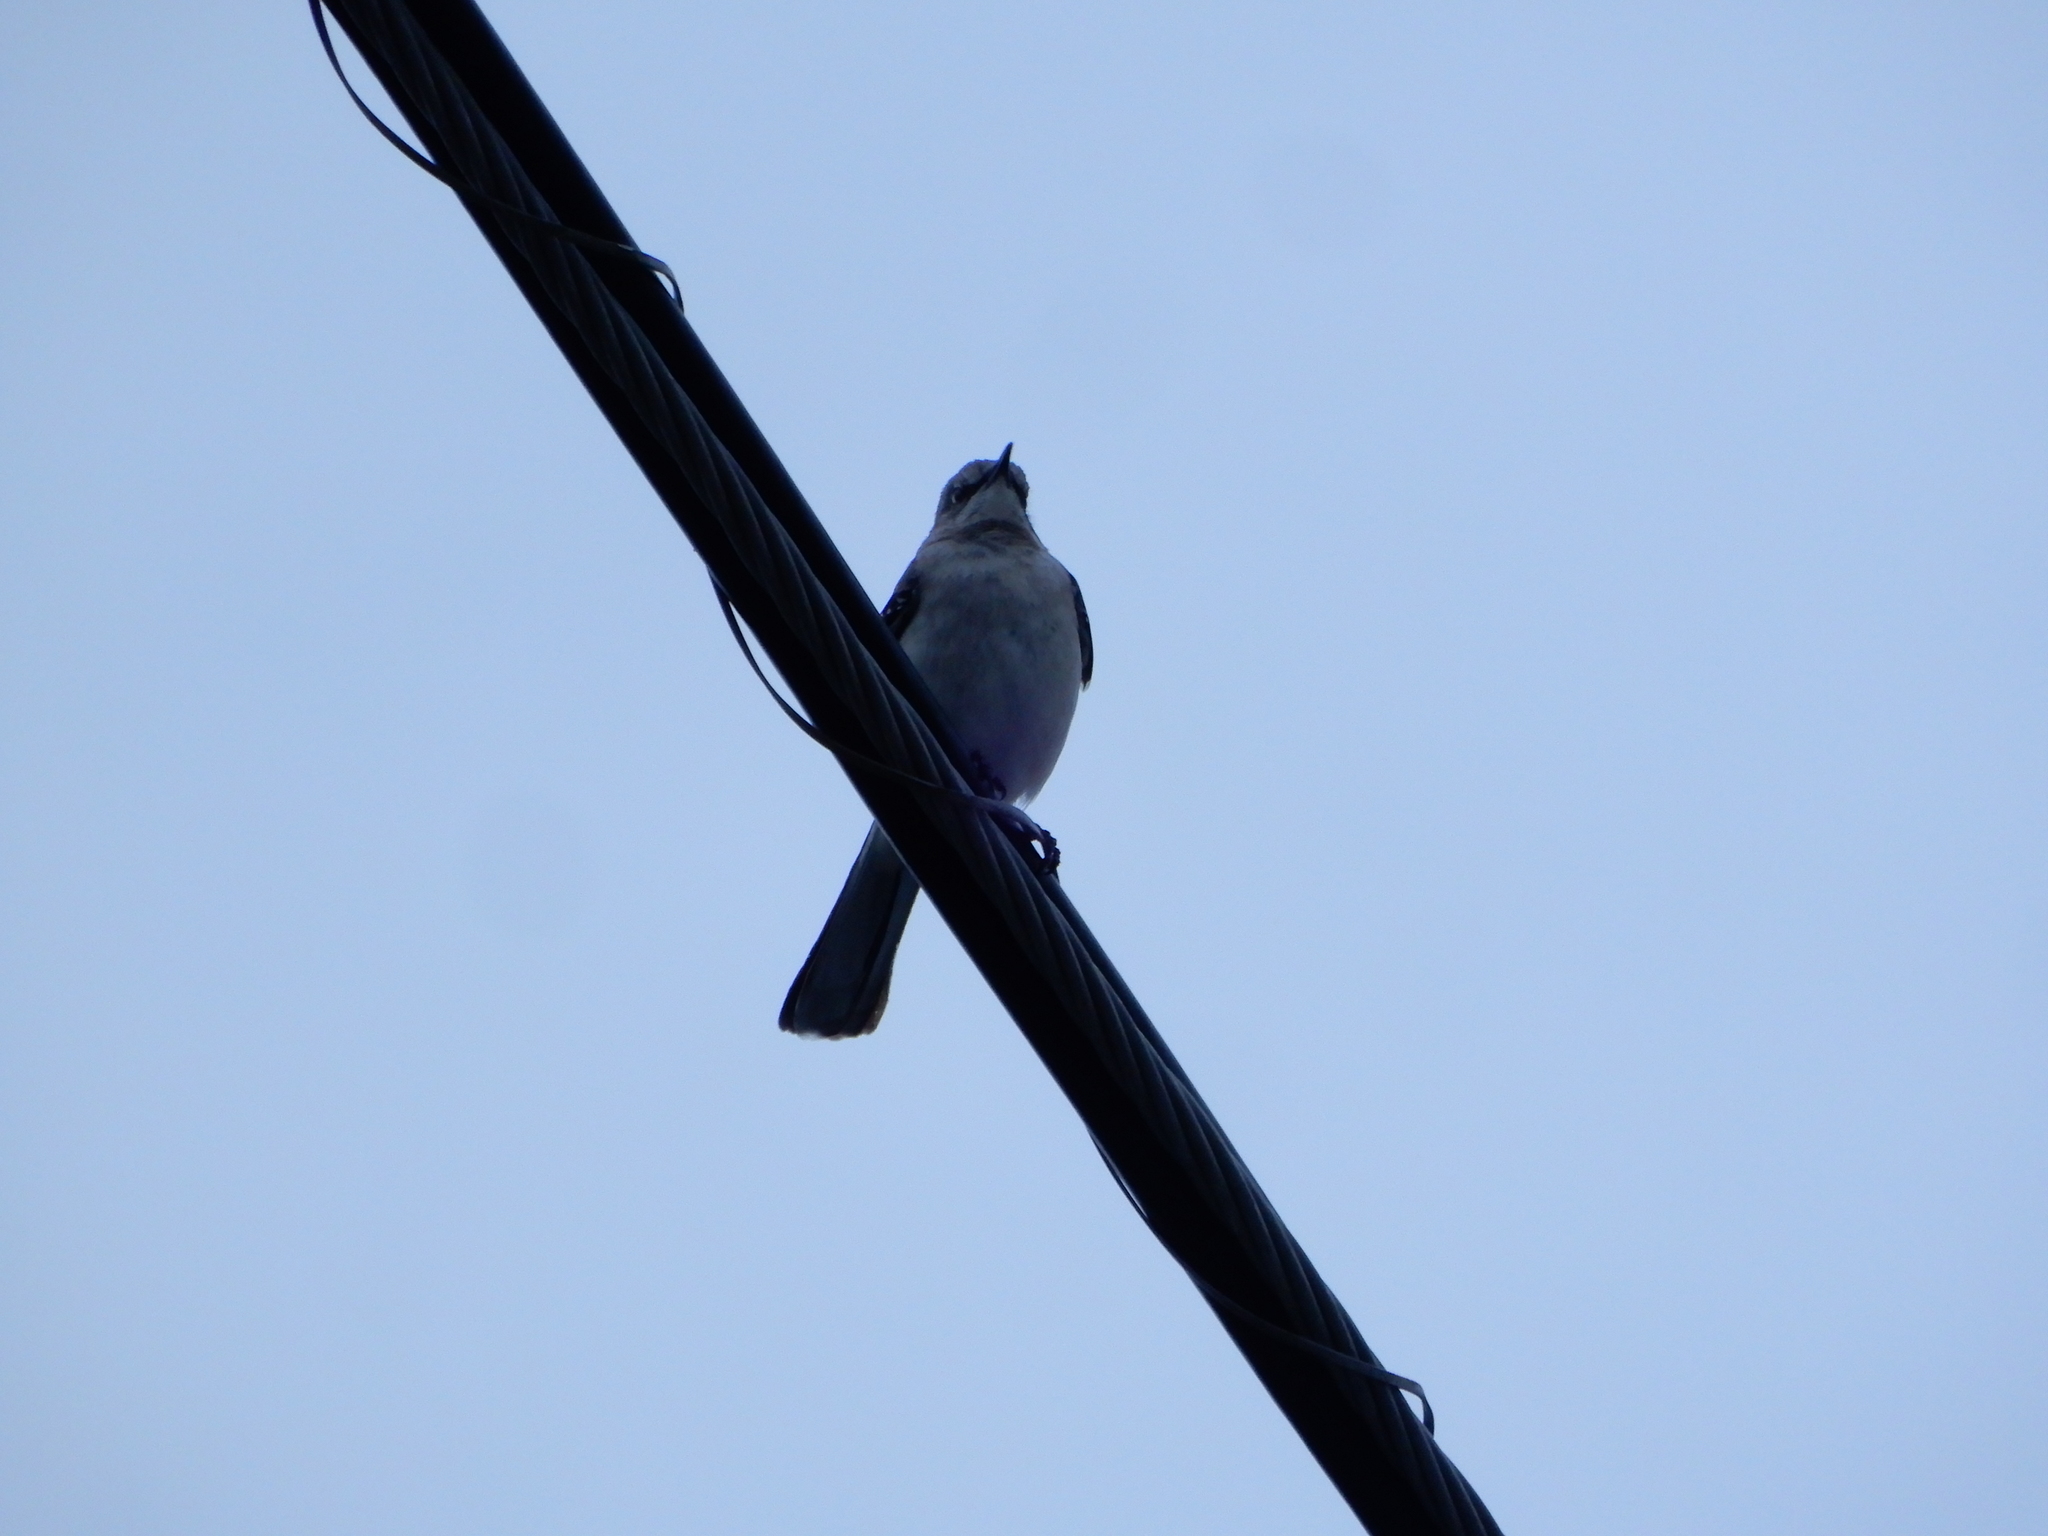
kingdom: Animalia
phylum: Chordata
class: Aves
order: Passeriformes
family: Mimidae
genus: Mimus
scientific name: Mimus polyglottos
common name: Northern mockingbird
